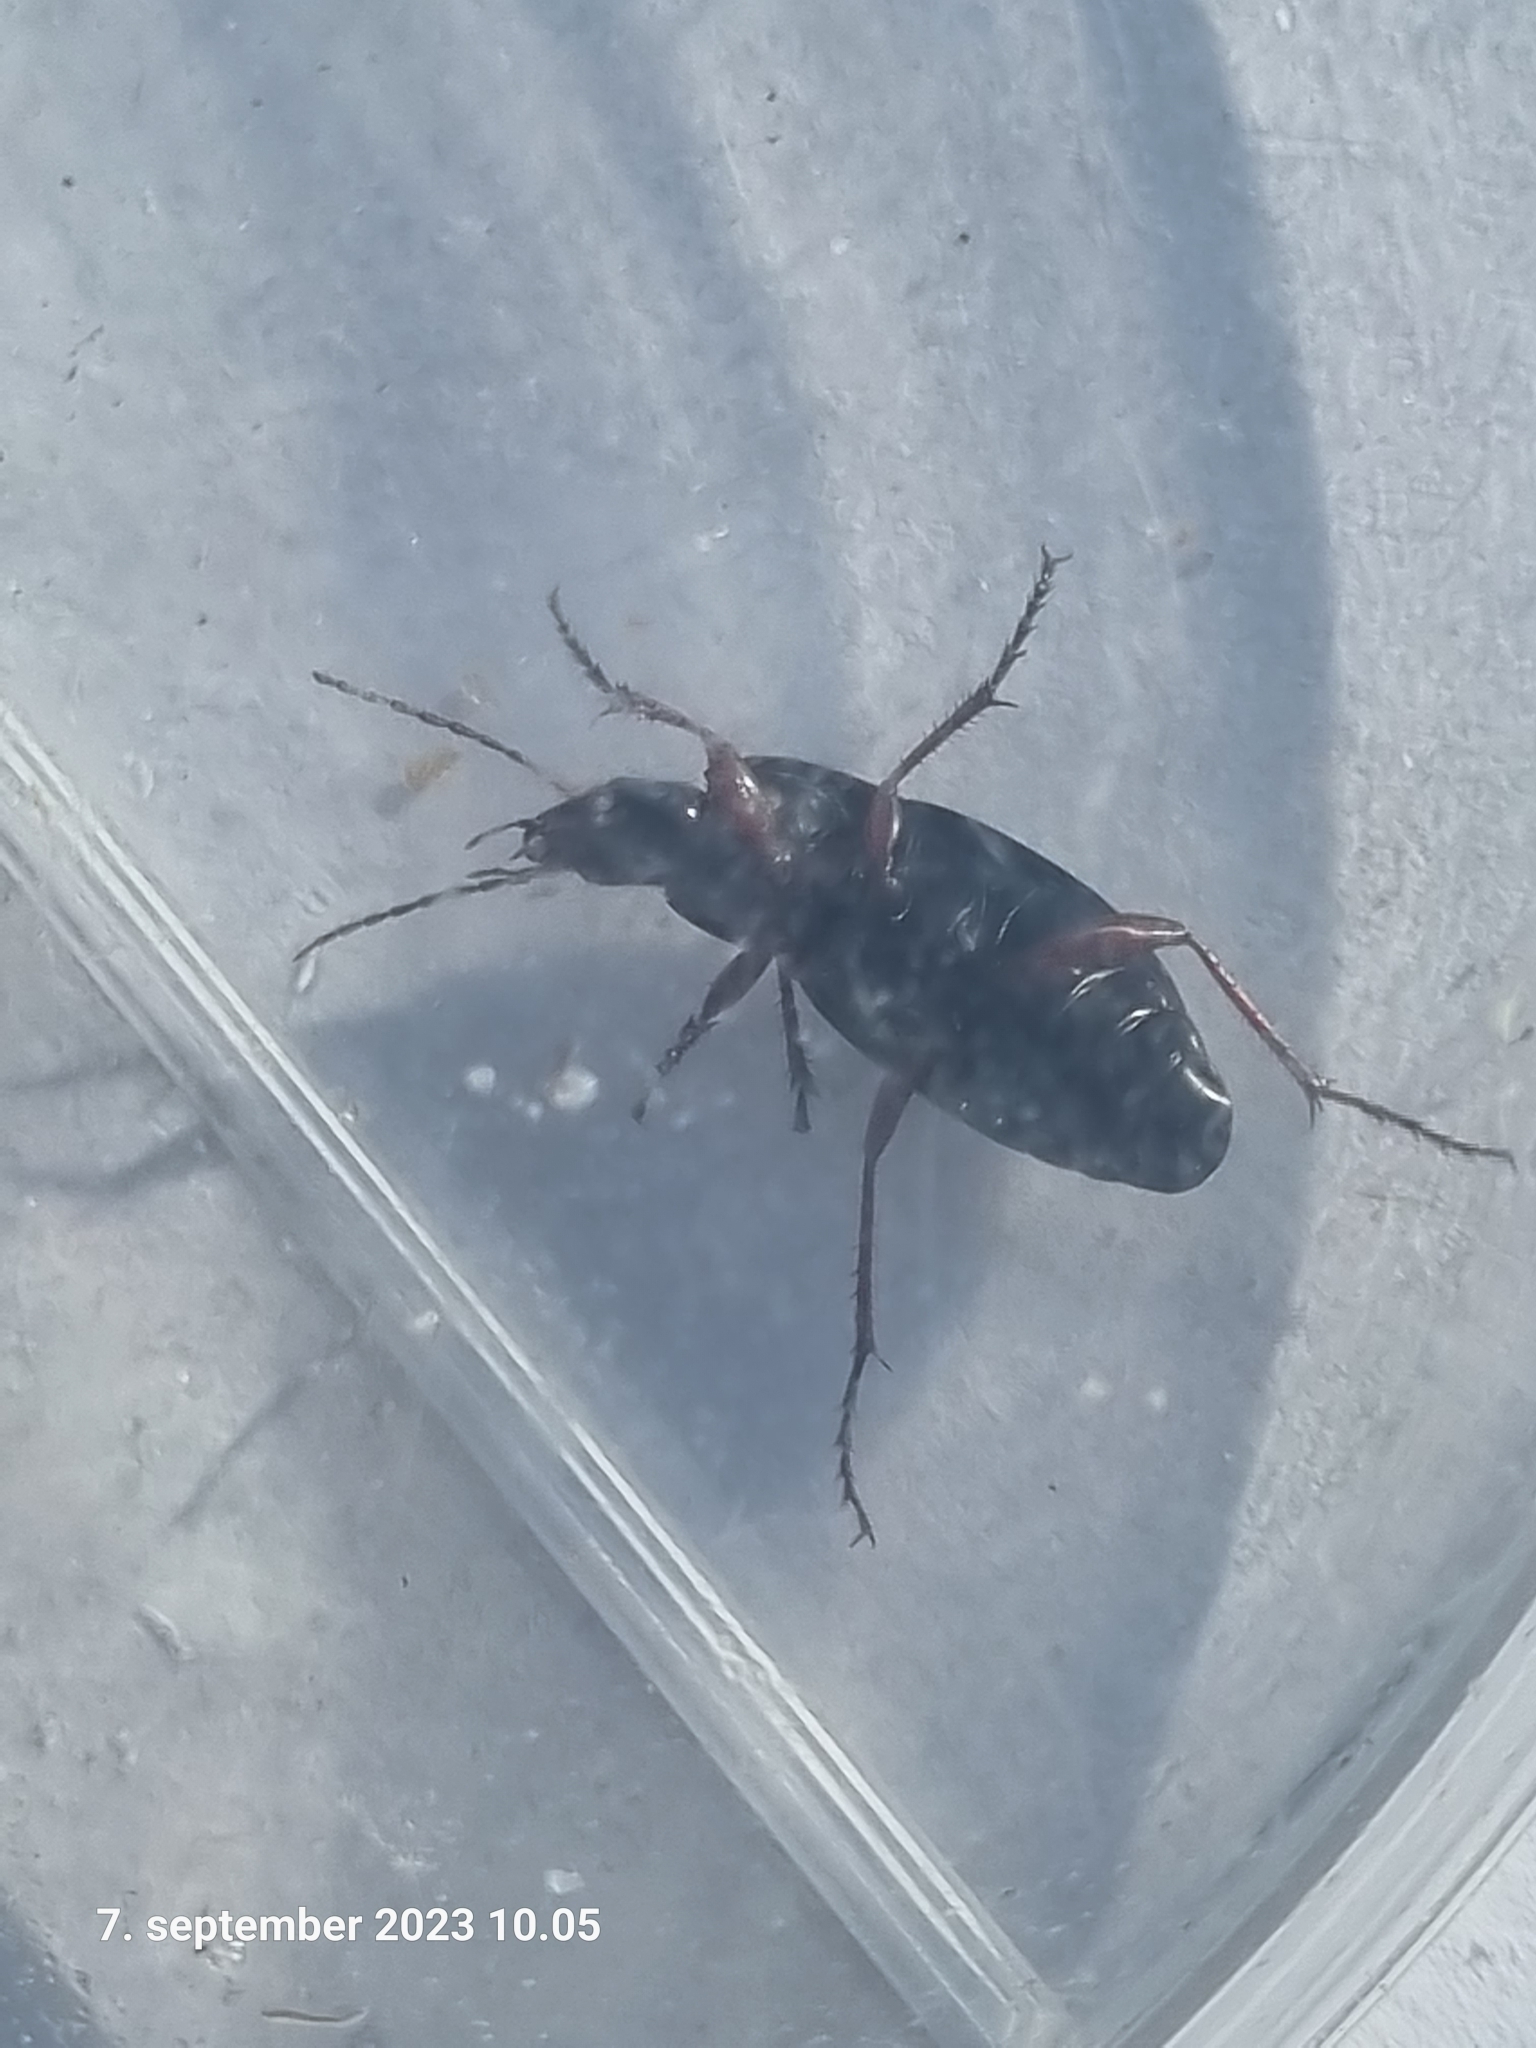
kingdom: Animalia
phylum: Arthropoda
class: Insecta
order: Coleoptera
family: Carabidae
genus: Calathus
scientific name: Calathus fuscipes
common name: Dark-footed harp ground beetle
